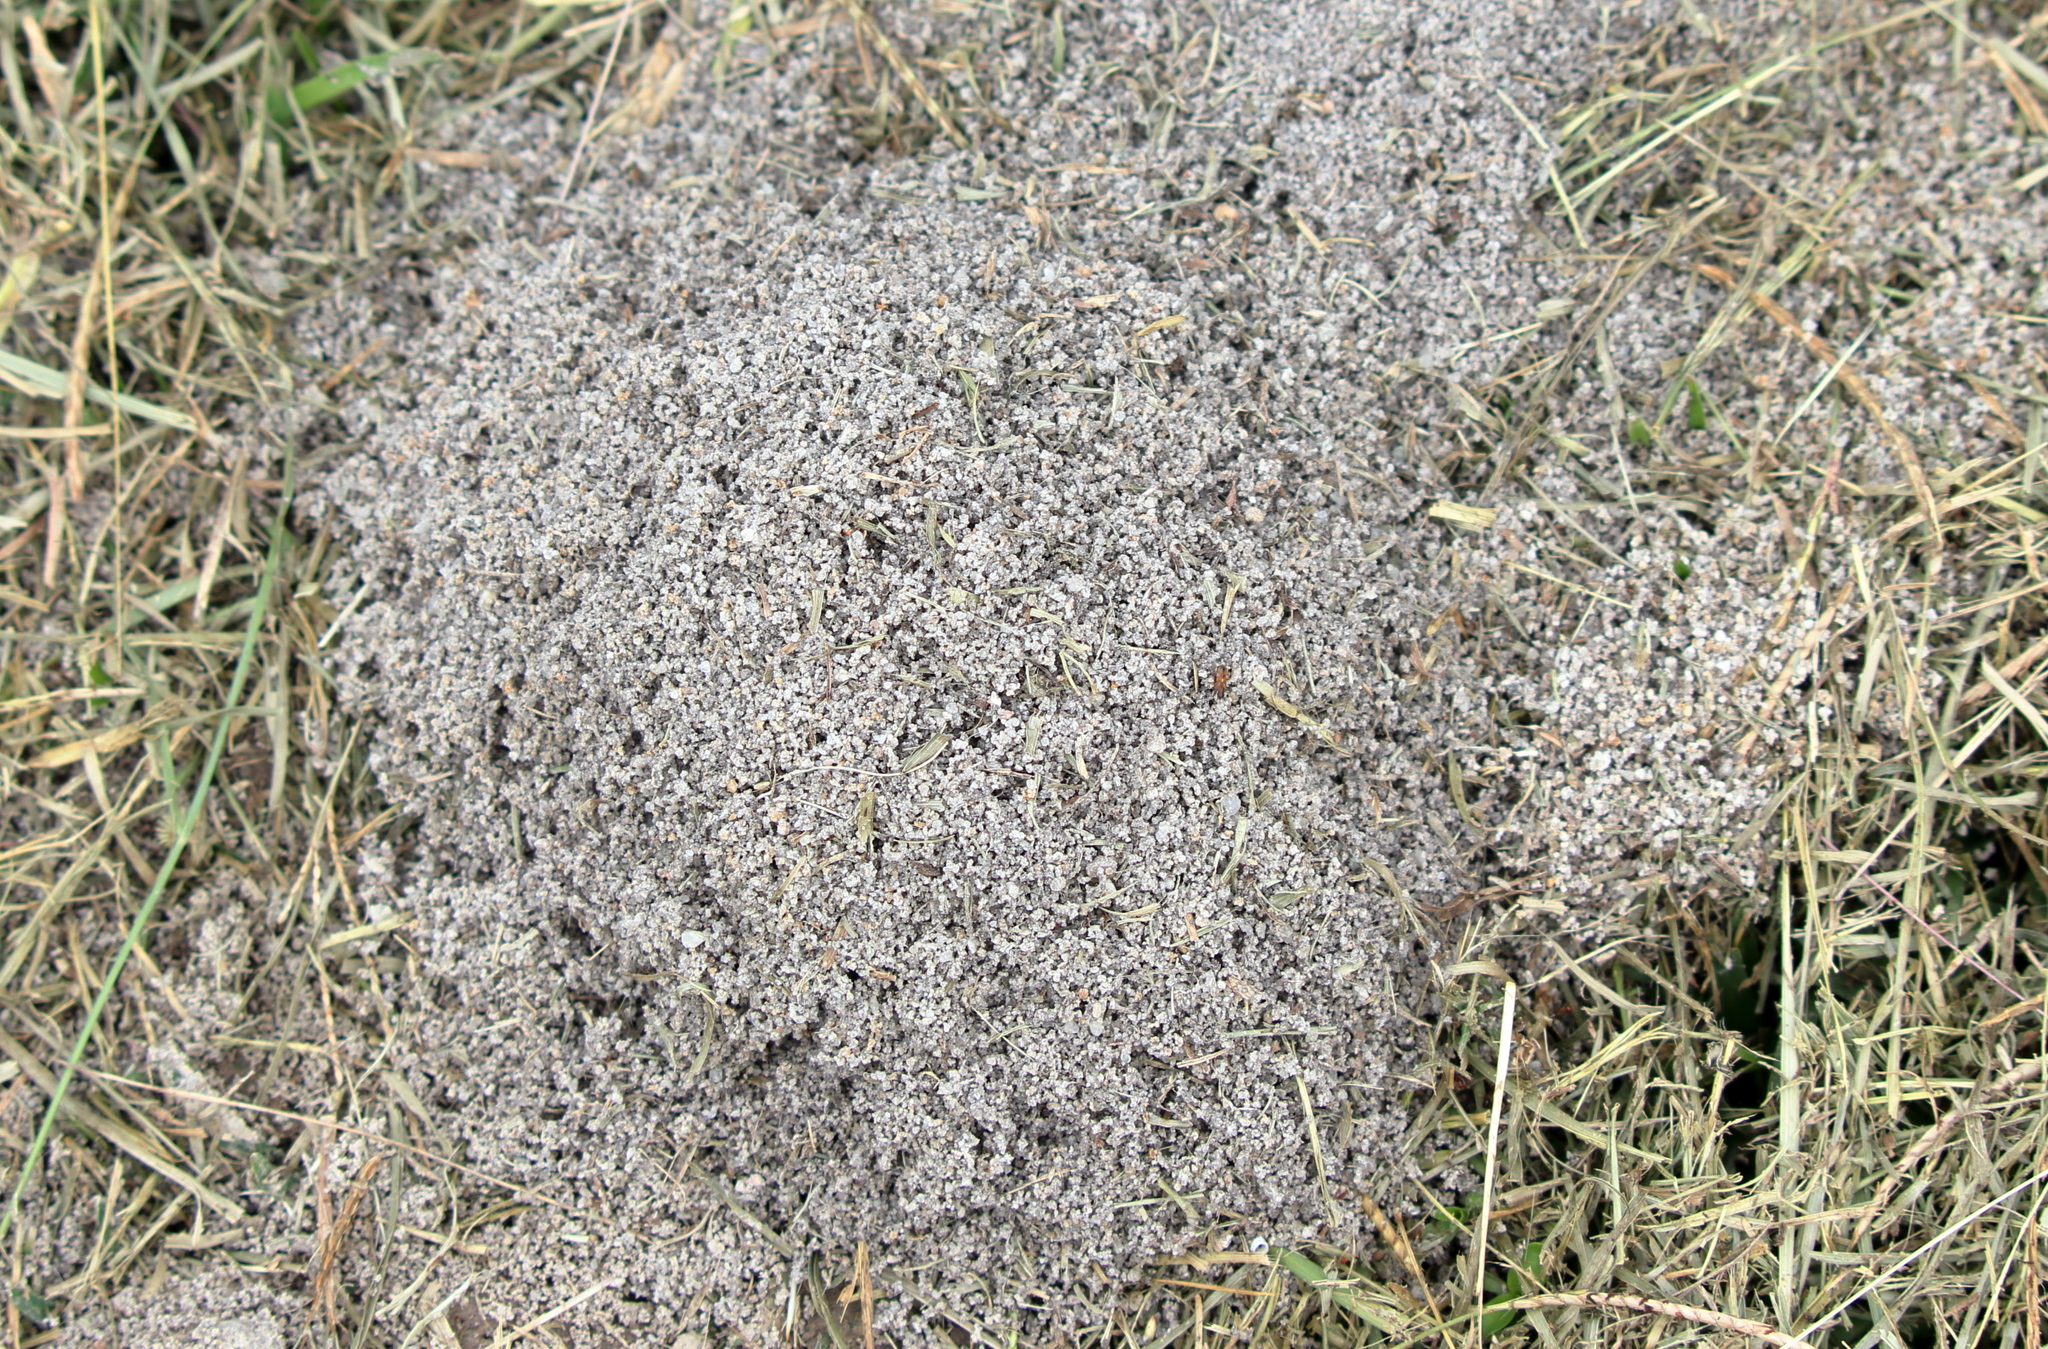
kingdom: Animalia
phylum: Arthropoda
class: Insecta
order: Hymenoptera
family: Formicidae
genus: Solenopsis
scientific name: Solenopsis invicta
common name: Red imported fire ant
